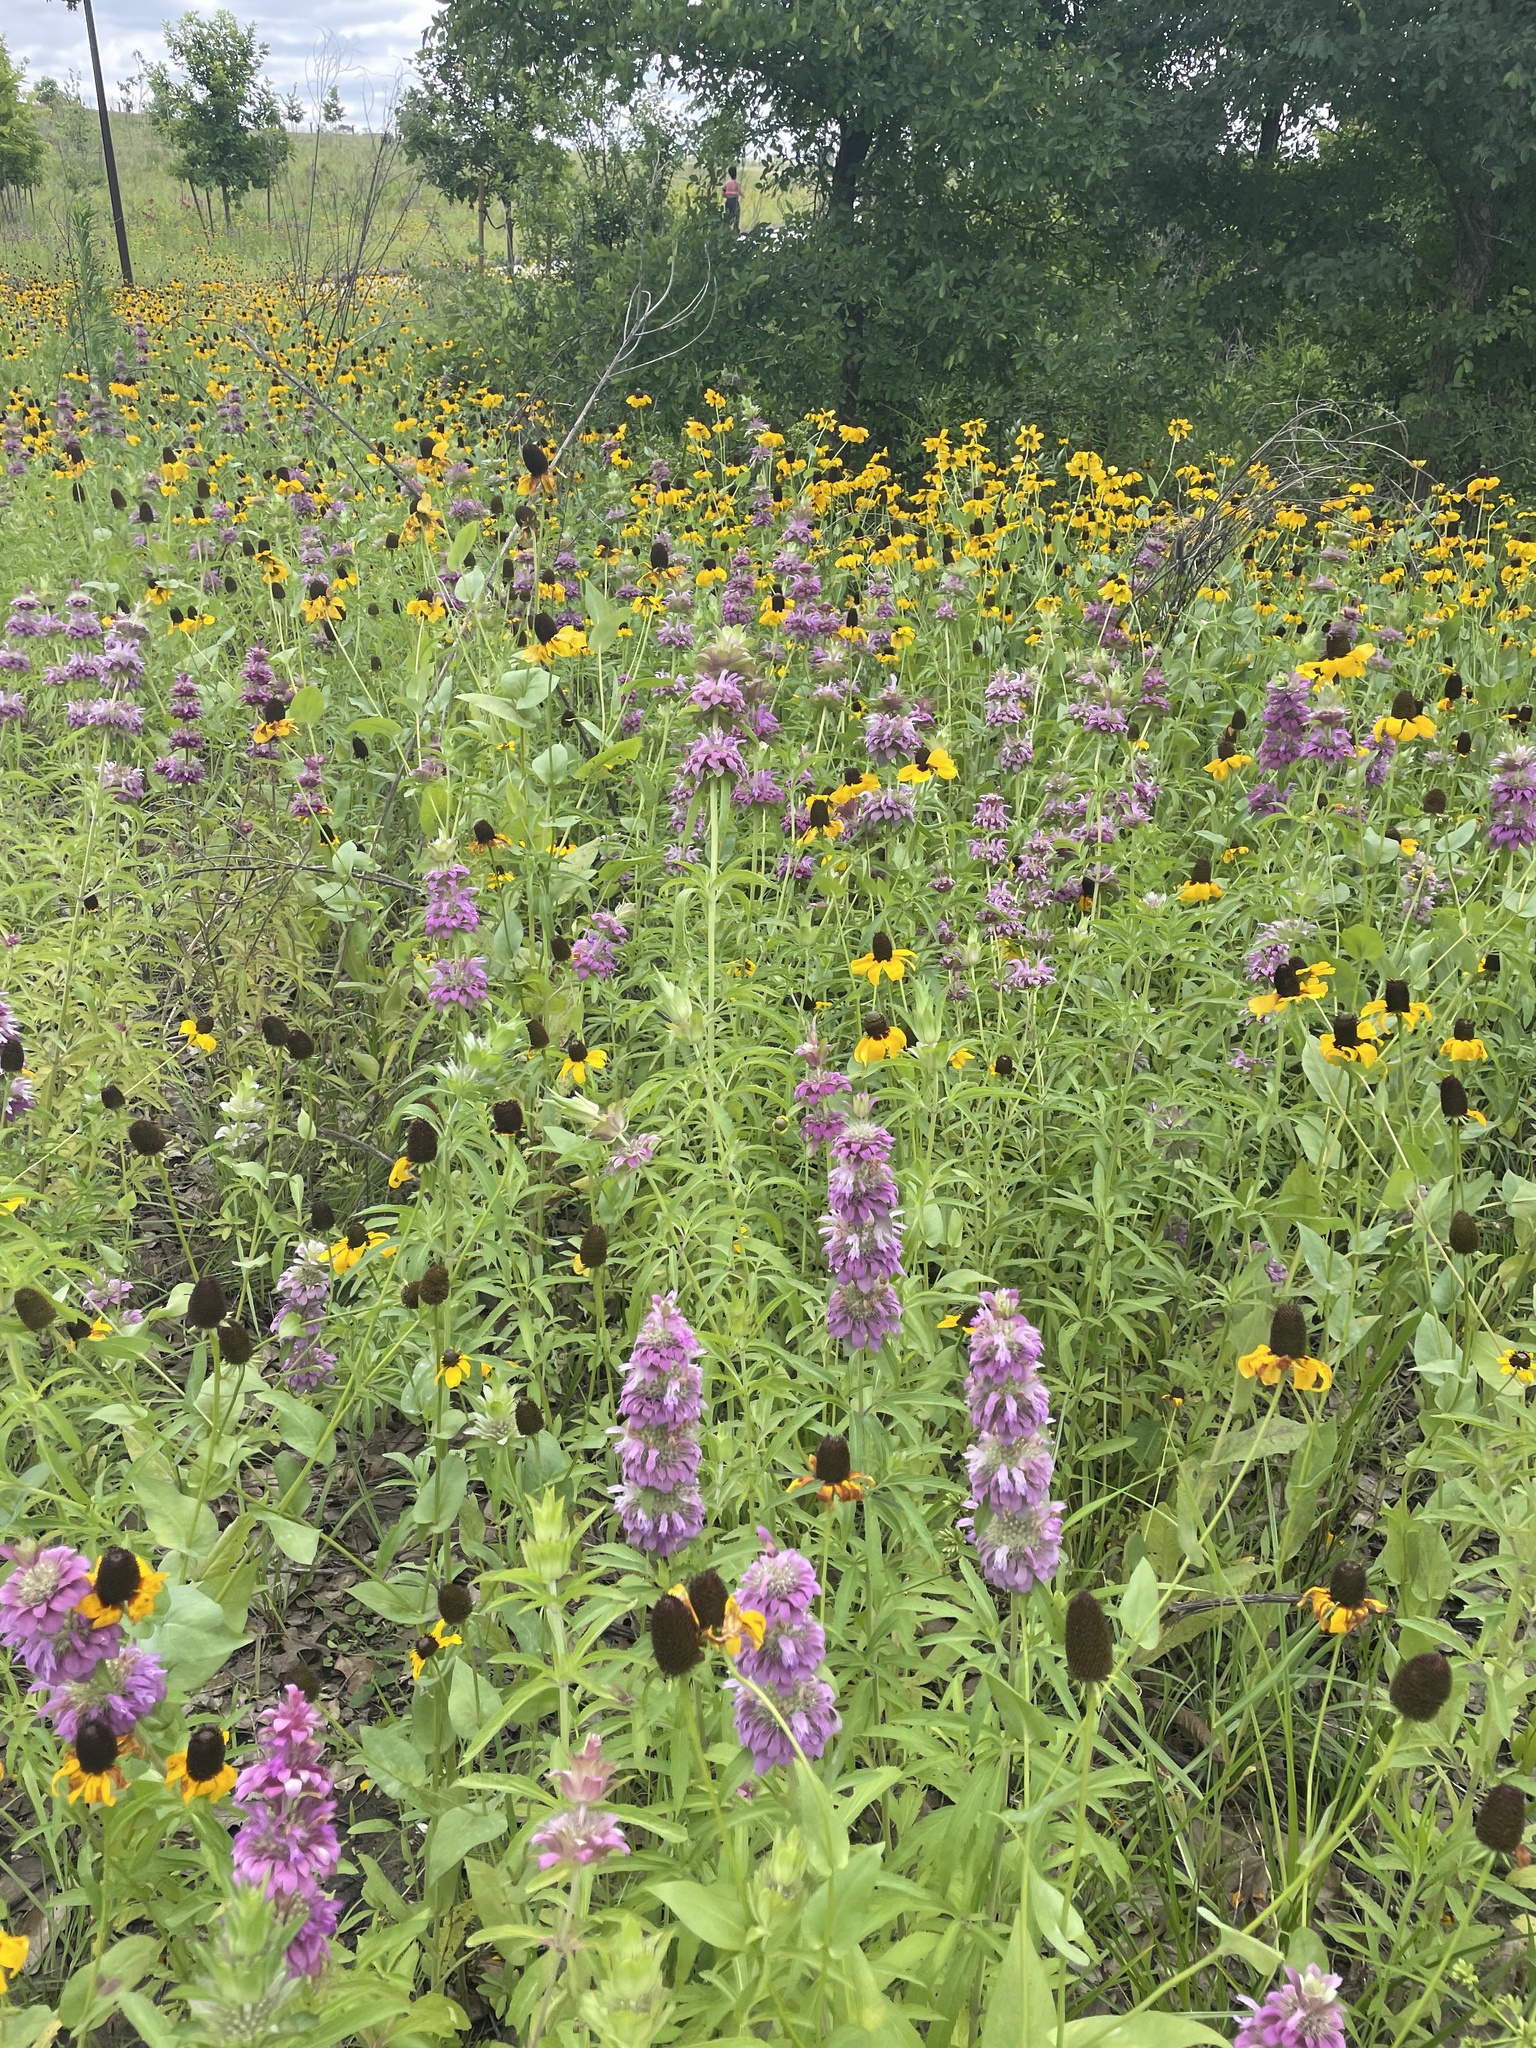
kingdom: Plantae
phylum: Tracheophyta
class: Magnoliopsida
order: Lamiales
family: Lamiaceae
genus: Monarda
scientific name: Monarda citriodora
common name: Lemon beebalm
